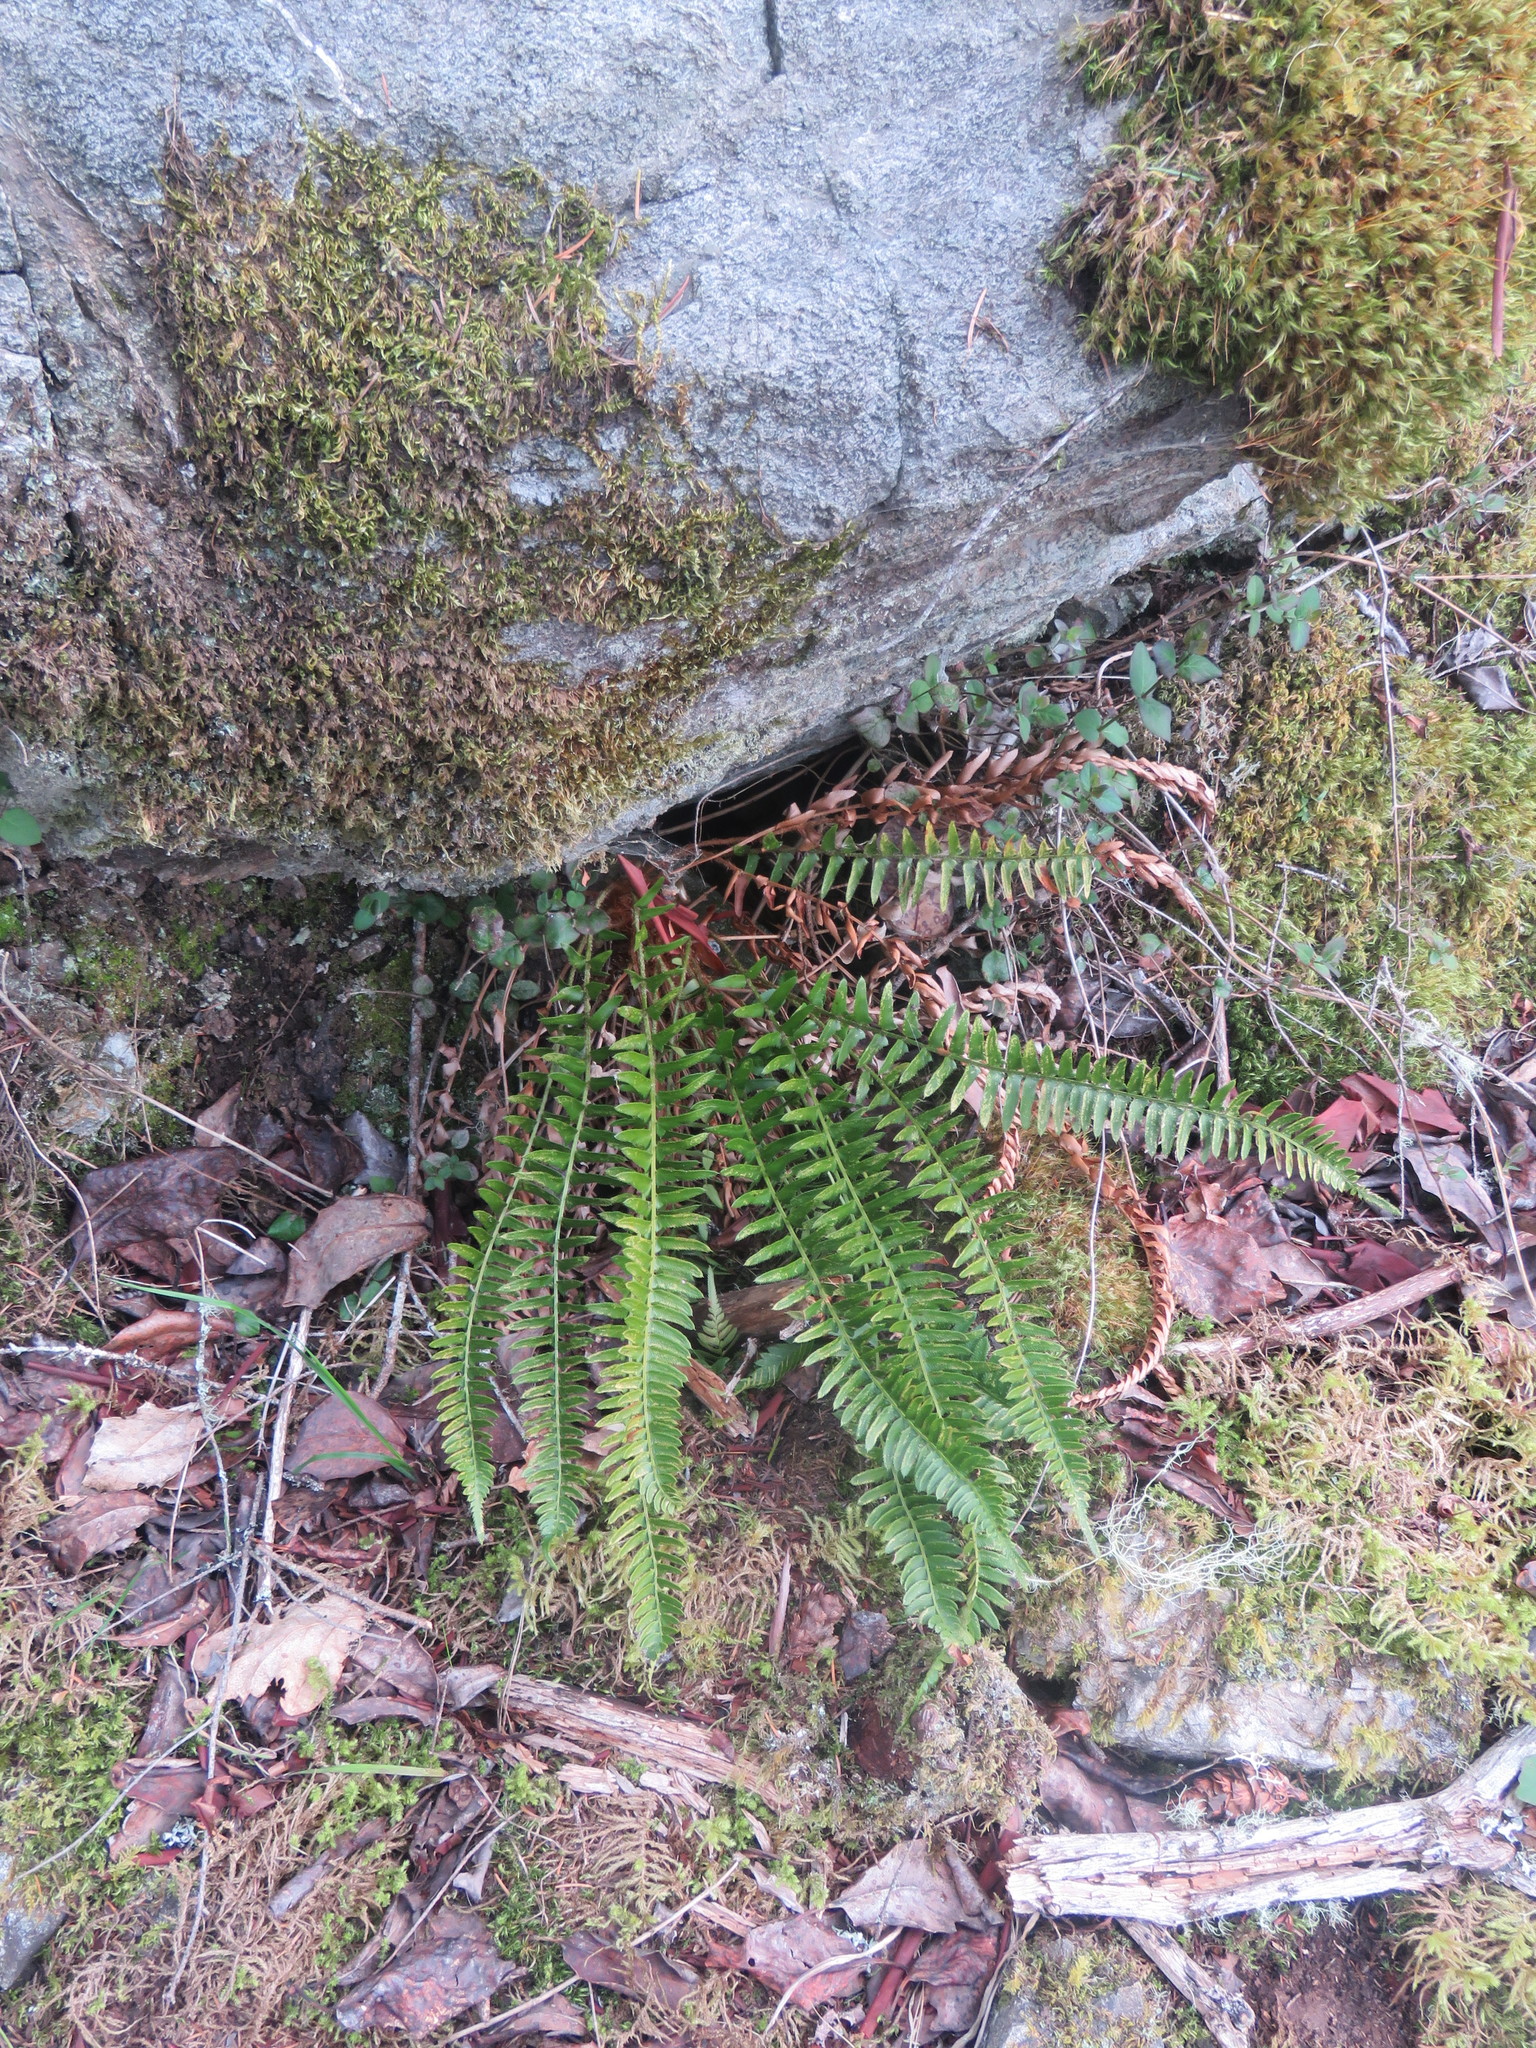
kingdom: Plantae
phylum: Tracheophyta
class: Polypodiopsida
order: Polypodiales
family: Dryopteridaceae
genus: Polystichum
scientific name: Polystichum imbricans
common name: Dwarf western sword fern
